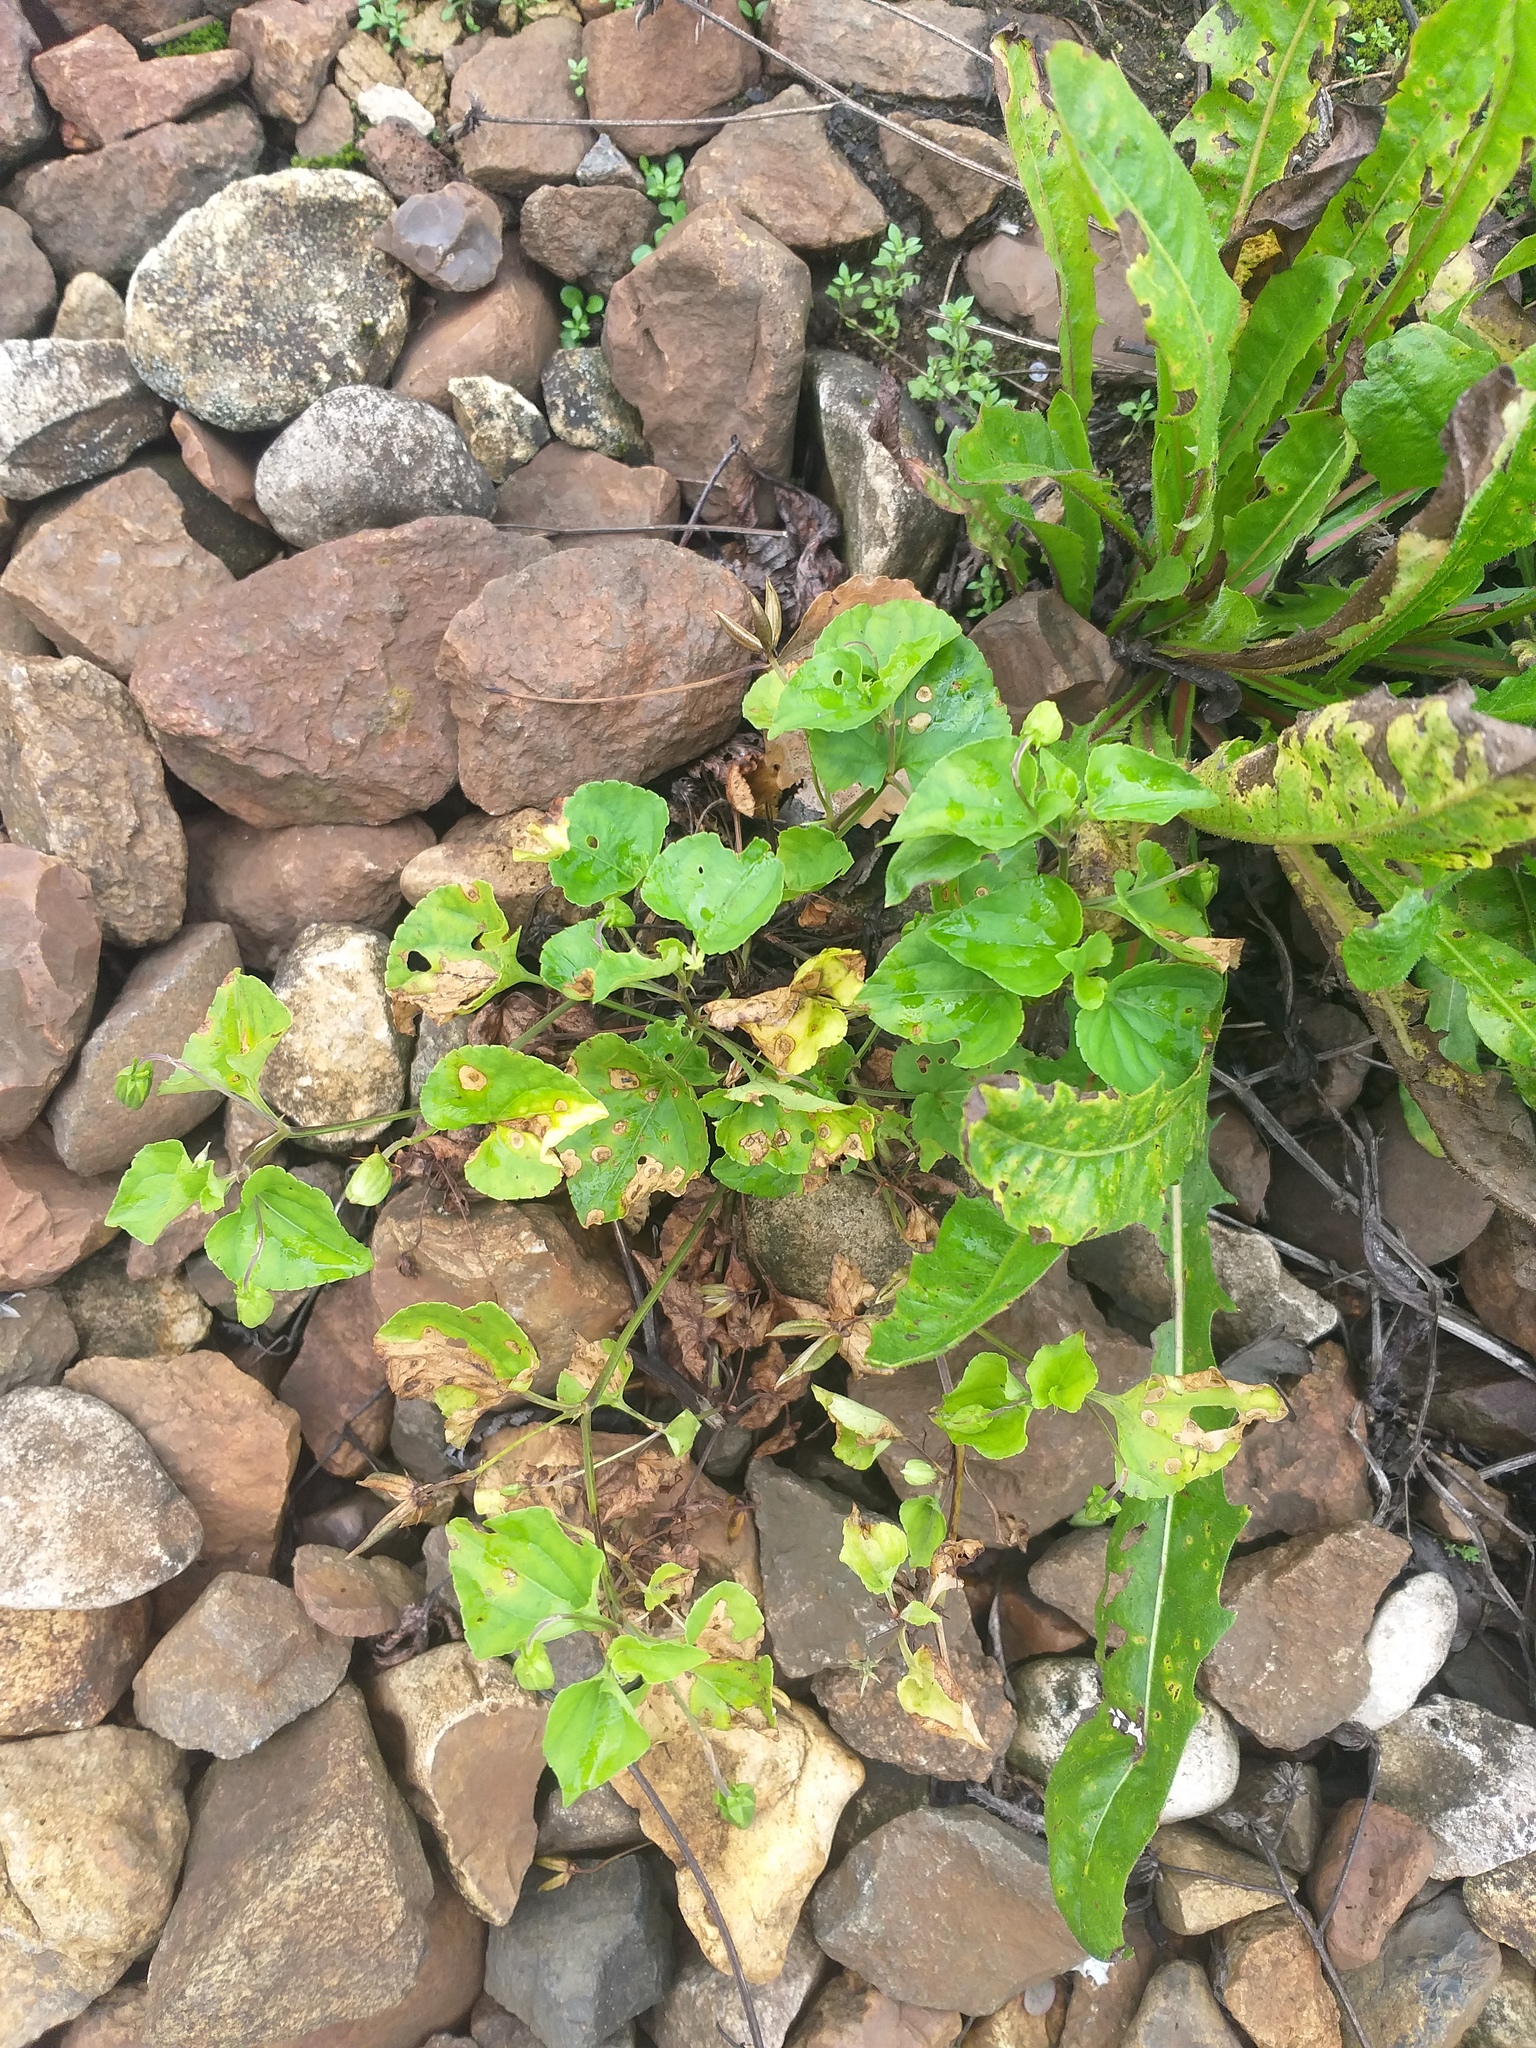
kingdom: Plantae
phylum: Tracheophyta
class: Magnoliopsida
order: Malpighiales
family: Violaceae
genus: Viola
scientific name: Viola riviniana
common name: Common dog-violet
